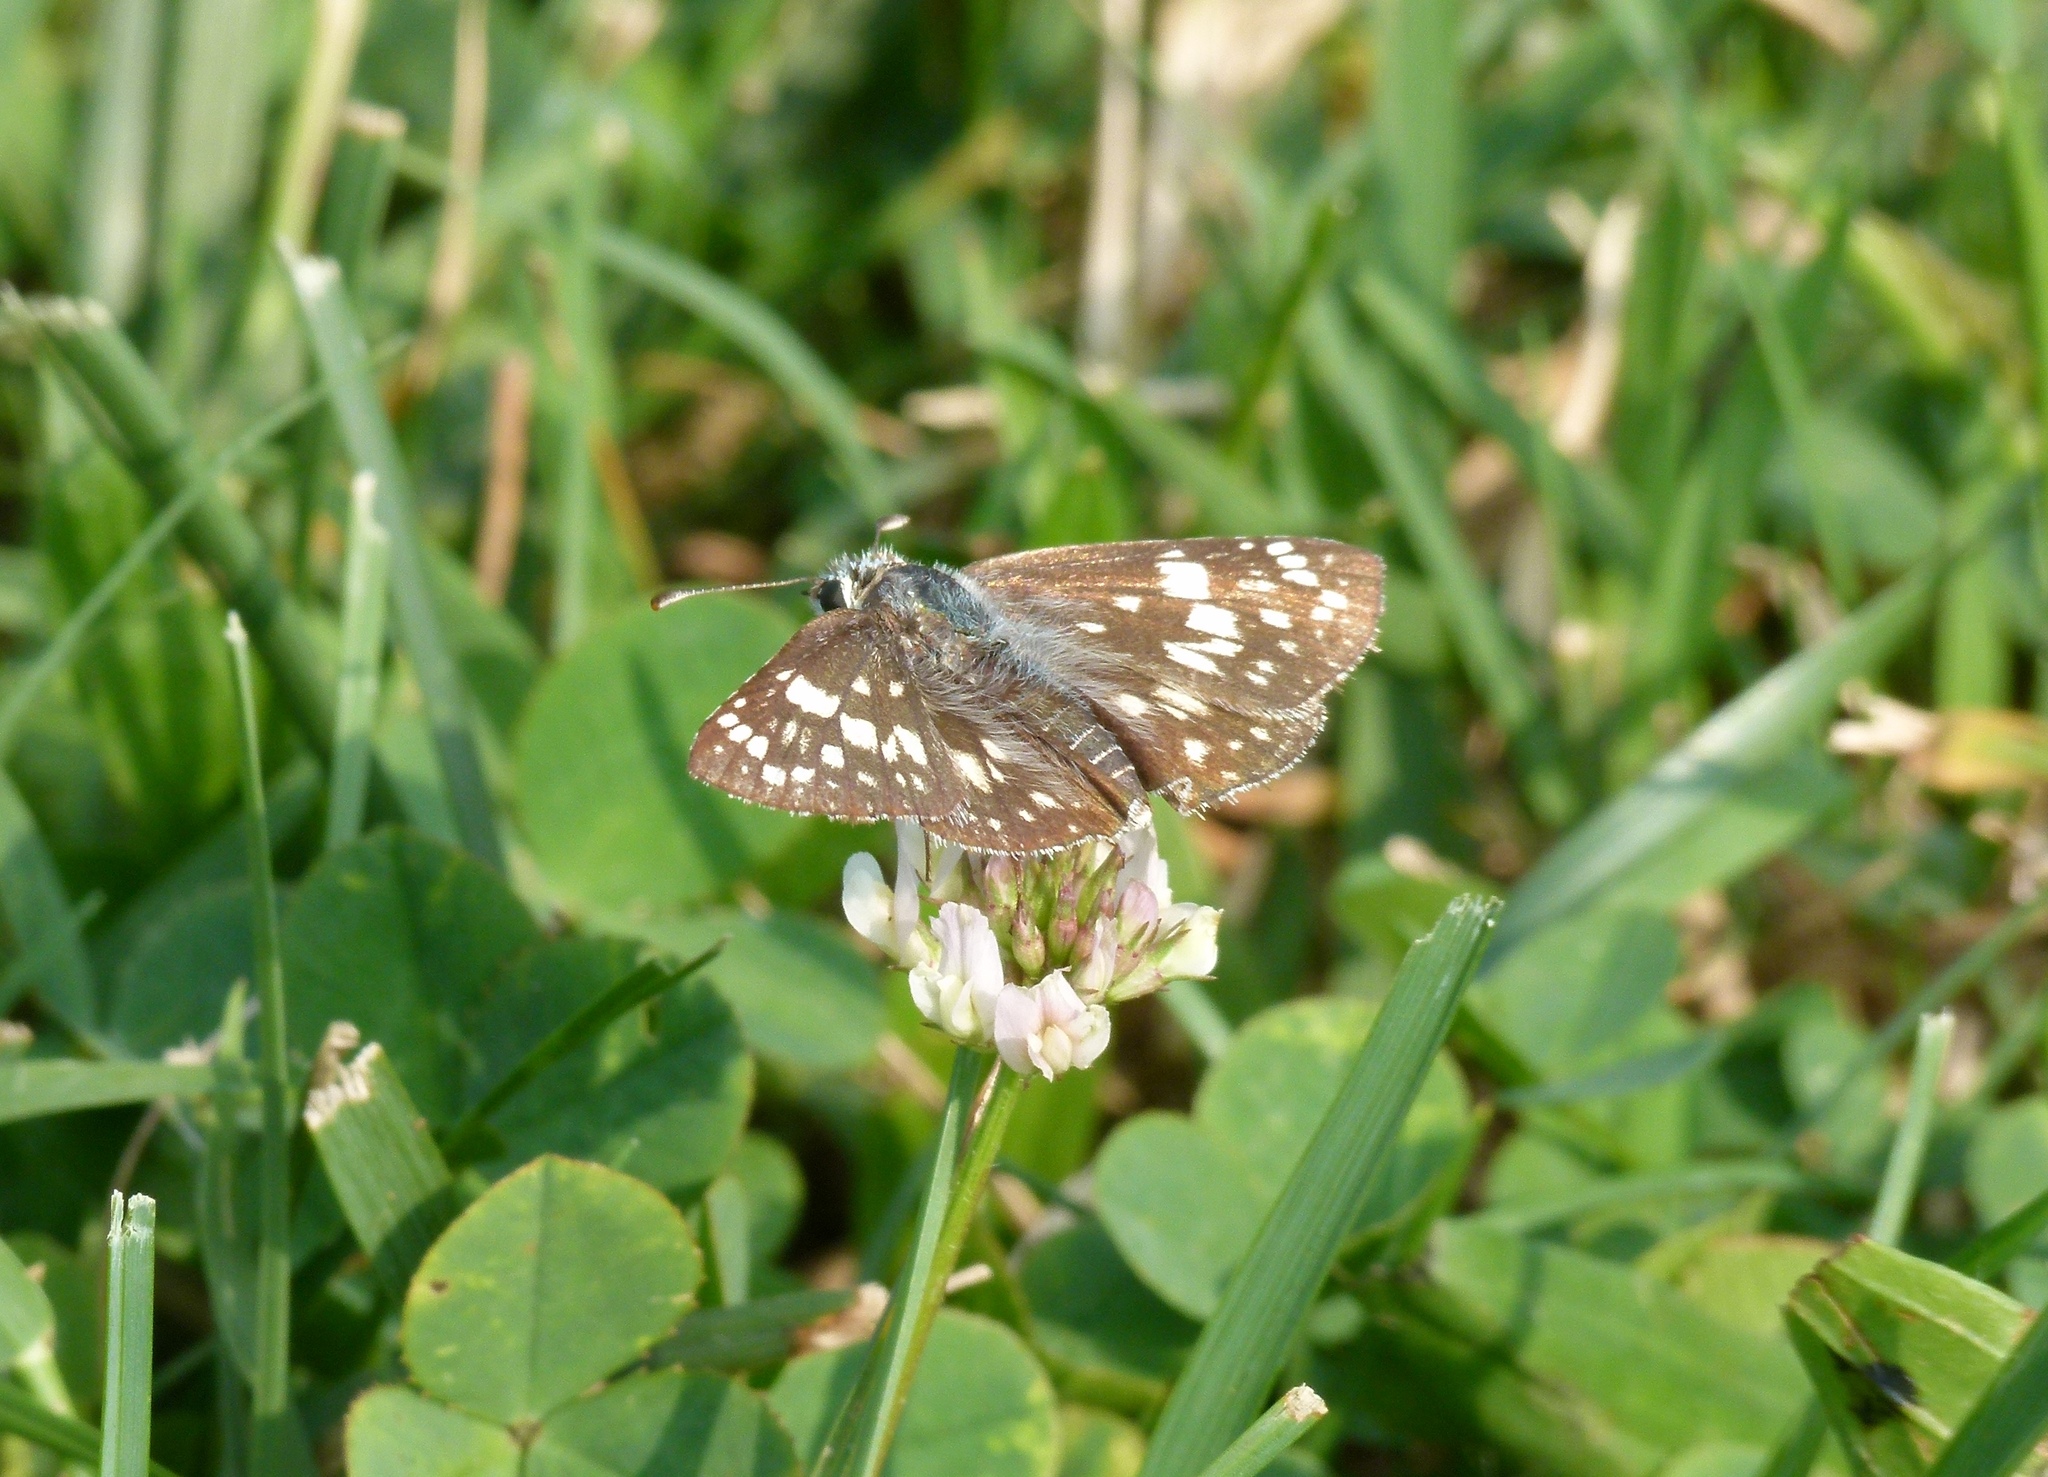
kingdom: Animalia
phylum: Arthropoda
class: Insecta
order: Lepidoptera
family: Hesperiidae
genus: Burnsius
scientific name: Burnsius communis
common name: Common checkered-skipper
